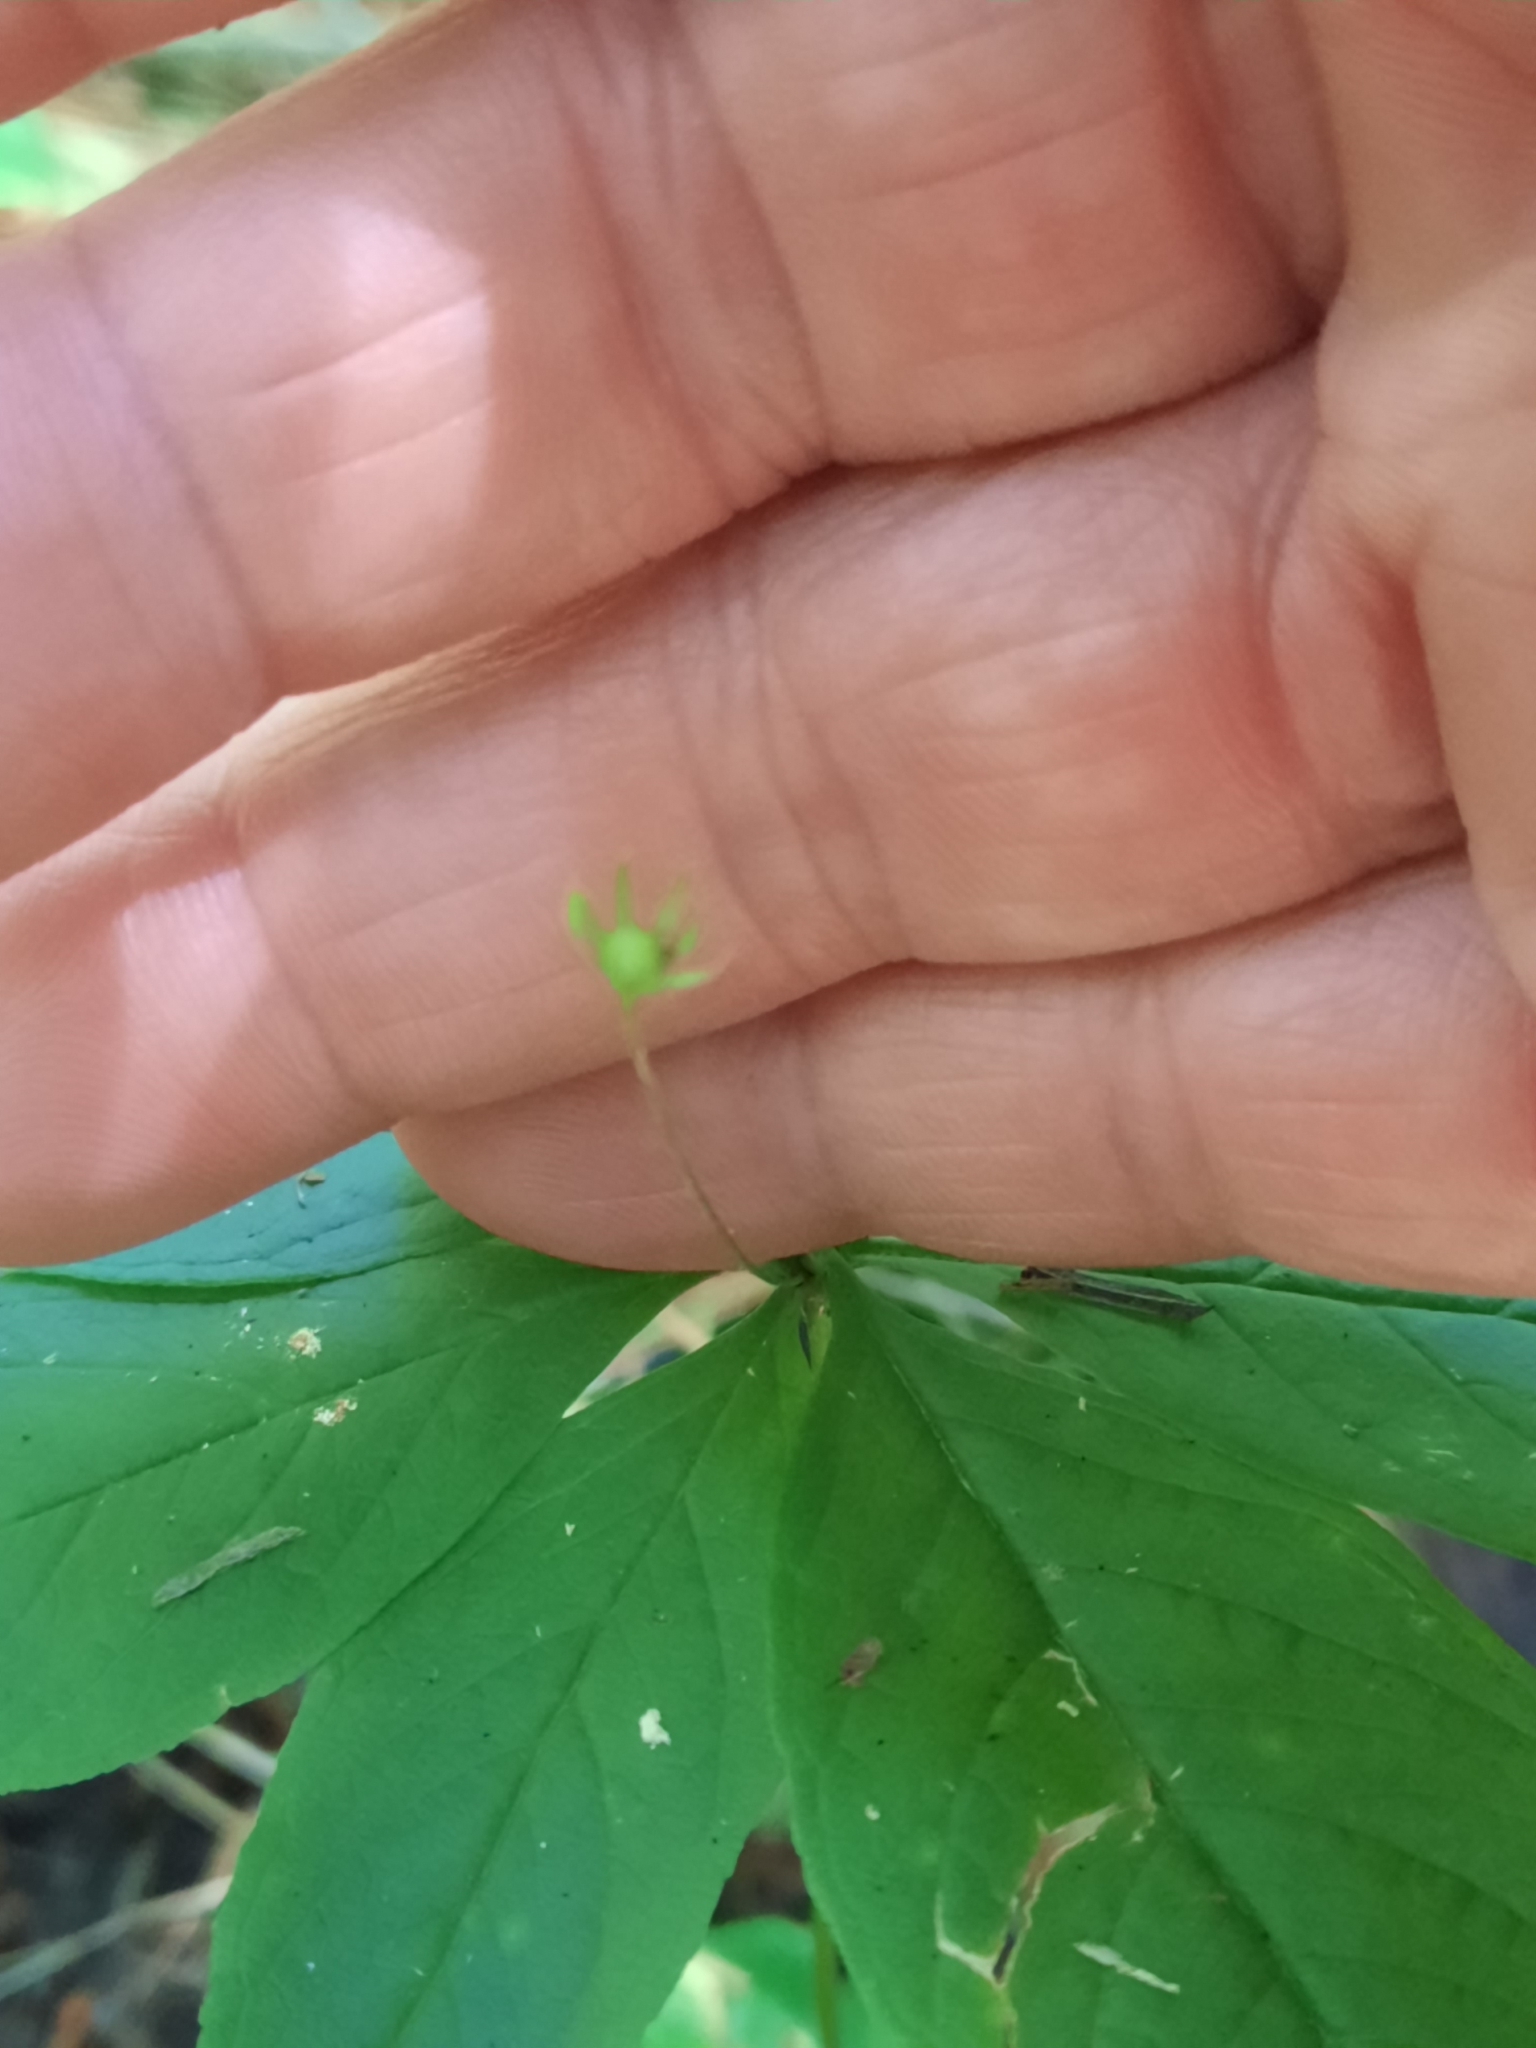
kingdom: Plantae
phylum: Tracheophyta
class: Magnoliopsida
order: Ericales
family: Primulaceae
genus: Lysimachia
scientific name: Lysimachia borealis
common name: American starflower
